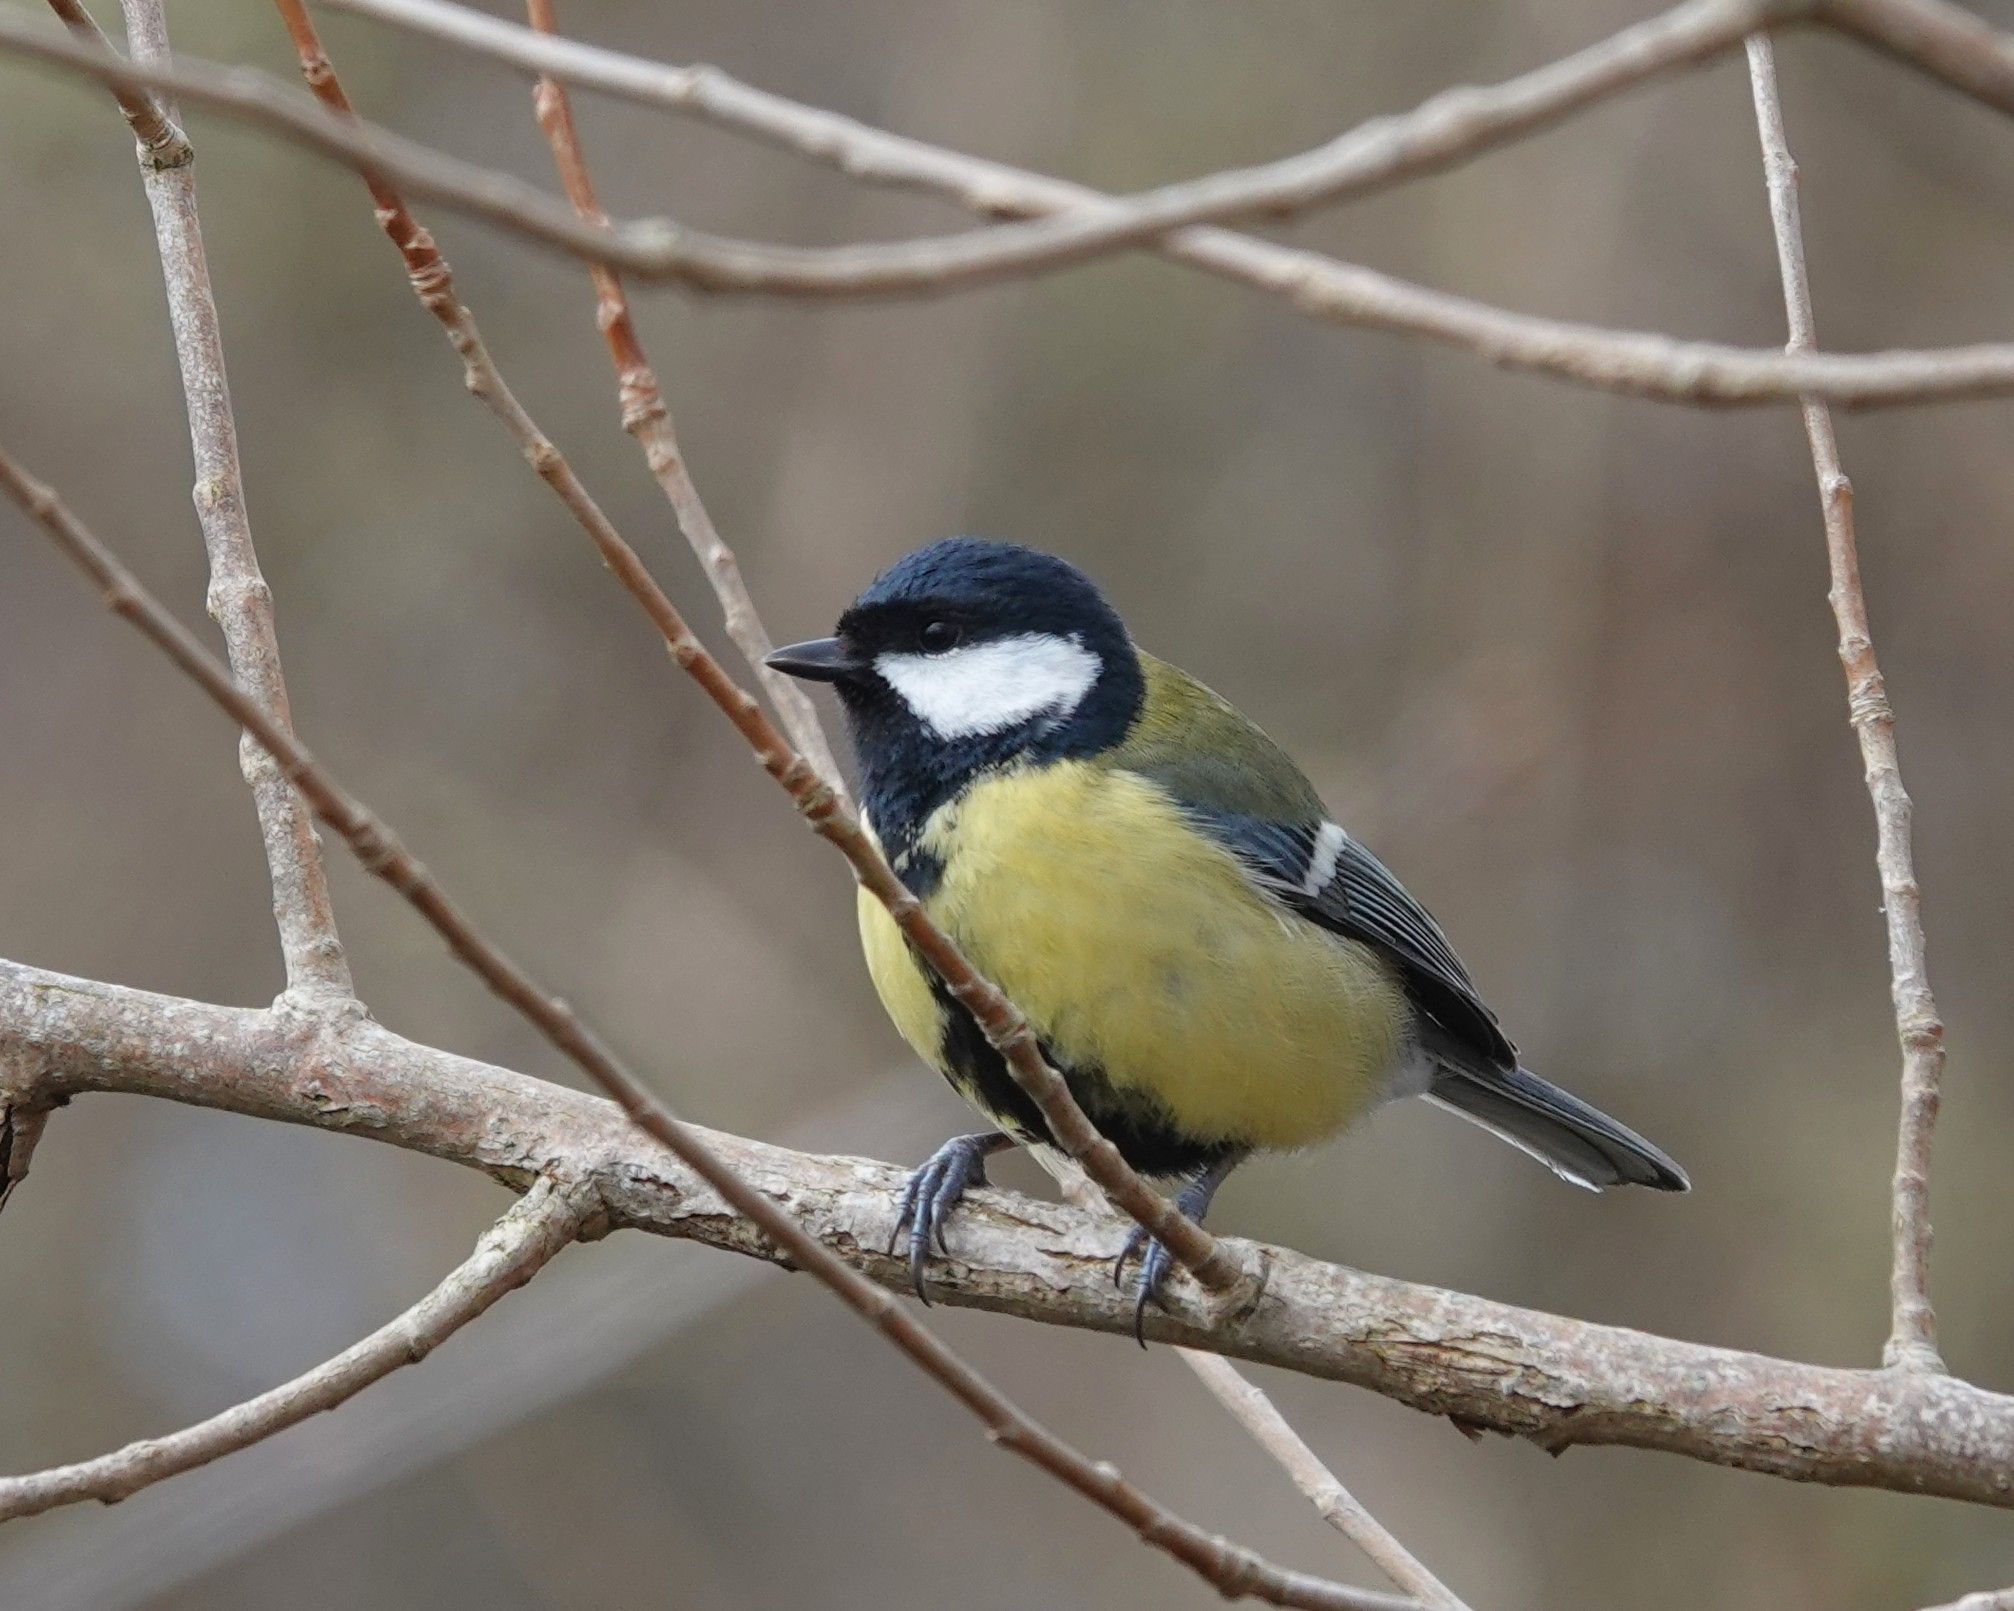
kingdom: Animalia
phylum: Chordata
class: Aves
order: Passeriformes
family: Paridae
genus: Parus
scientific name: Parus major
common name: Great tit
